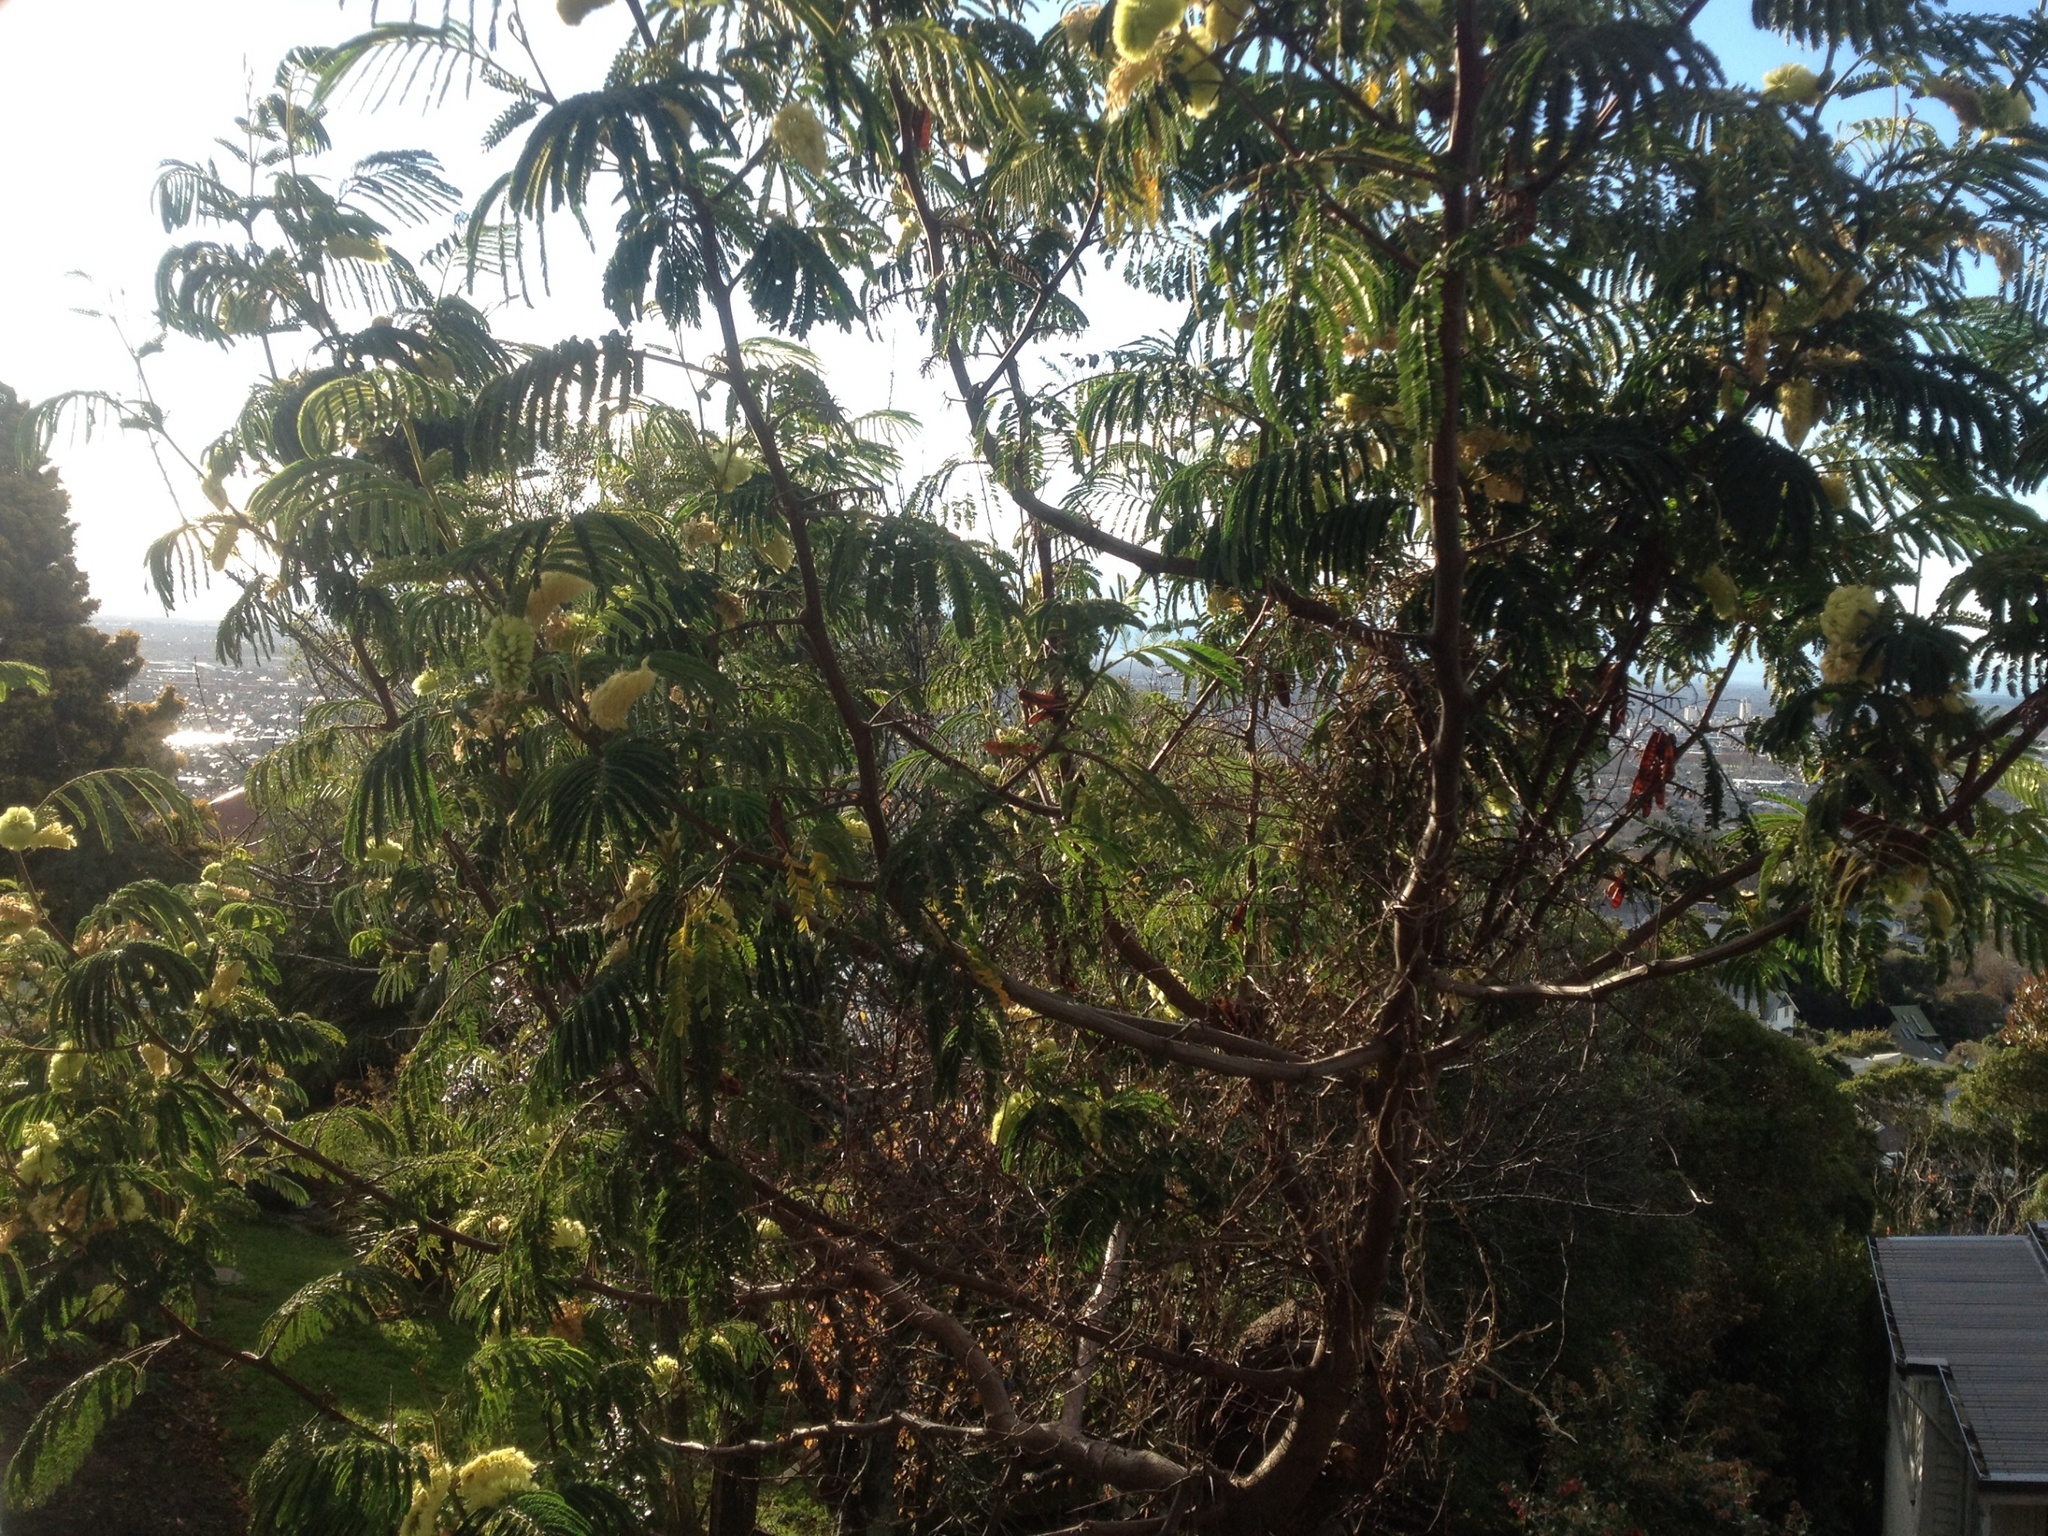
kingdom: Plantae
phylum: Tracheophyta
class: Magnoliopsida
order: Fabales
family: Fabaceae
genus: Paraserianthes
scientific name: Paraserianthes lophantha
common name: Plume albizia
